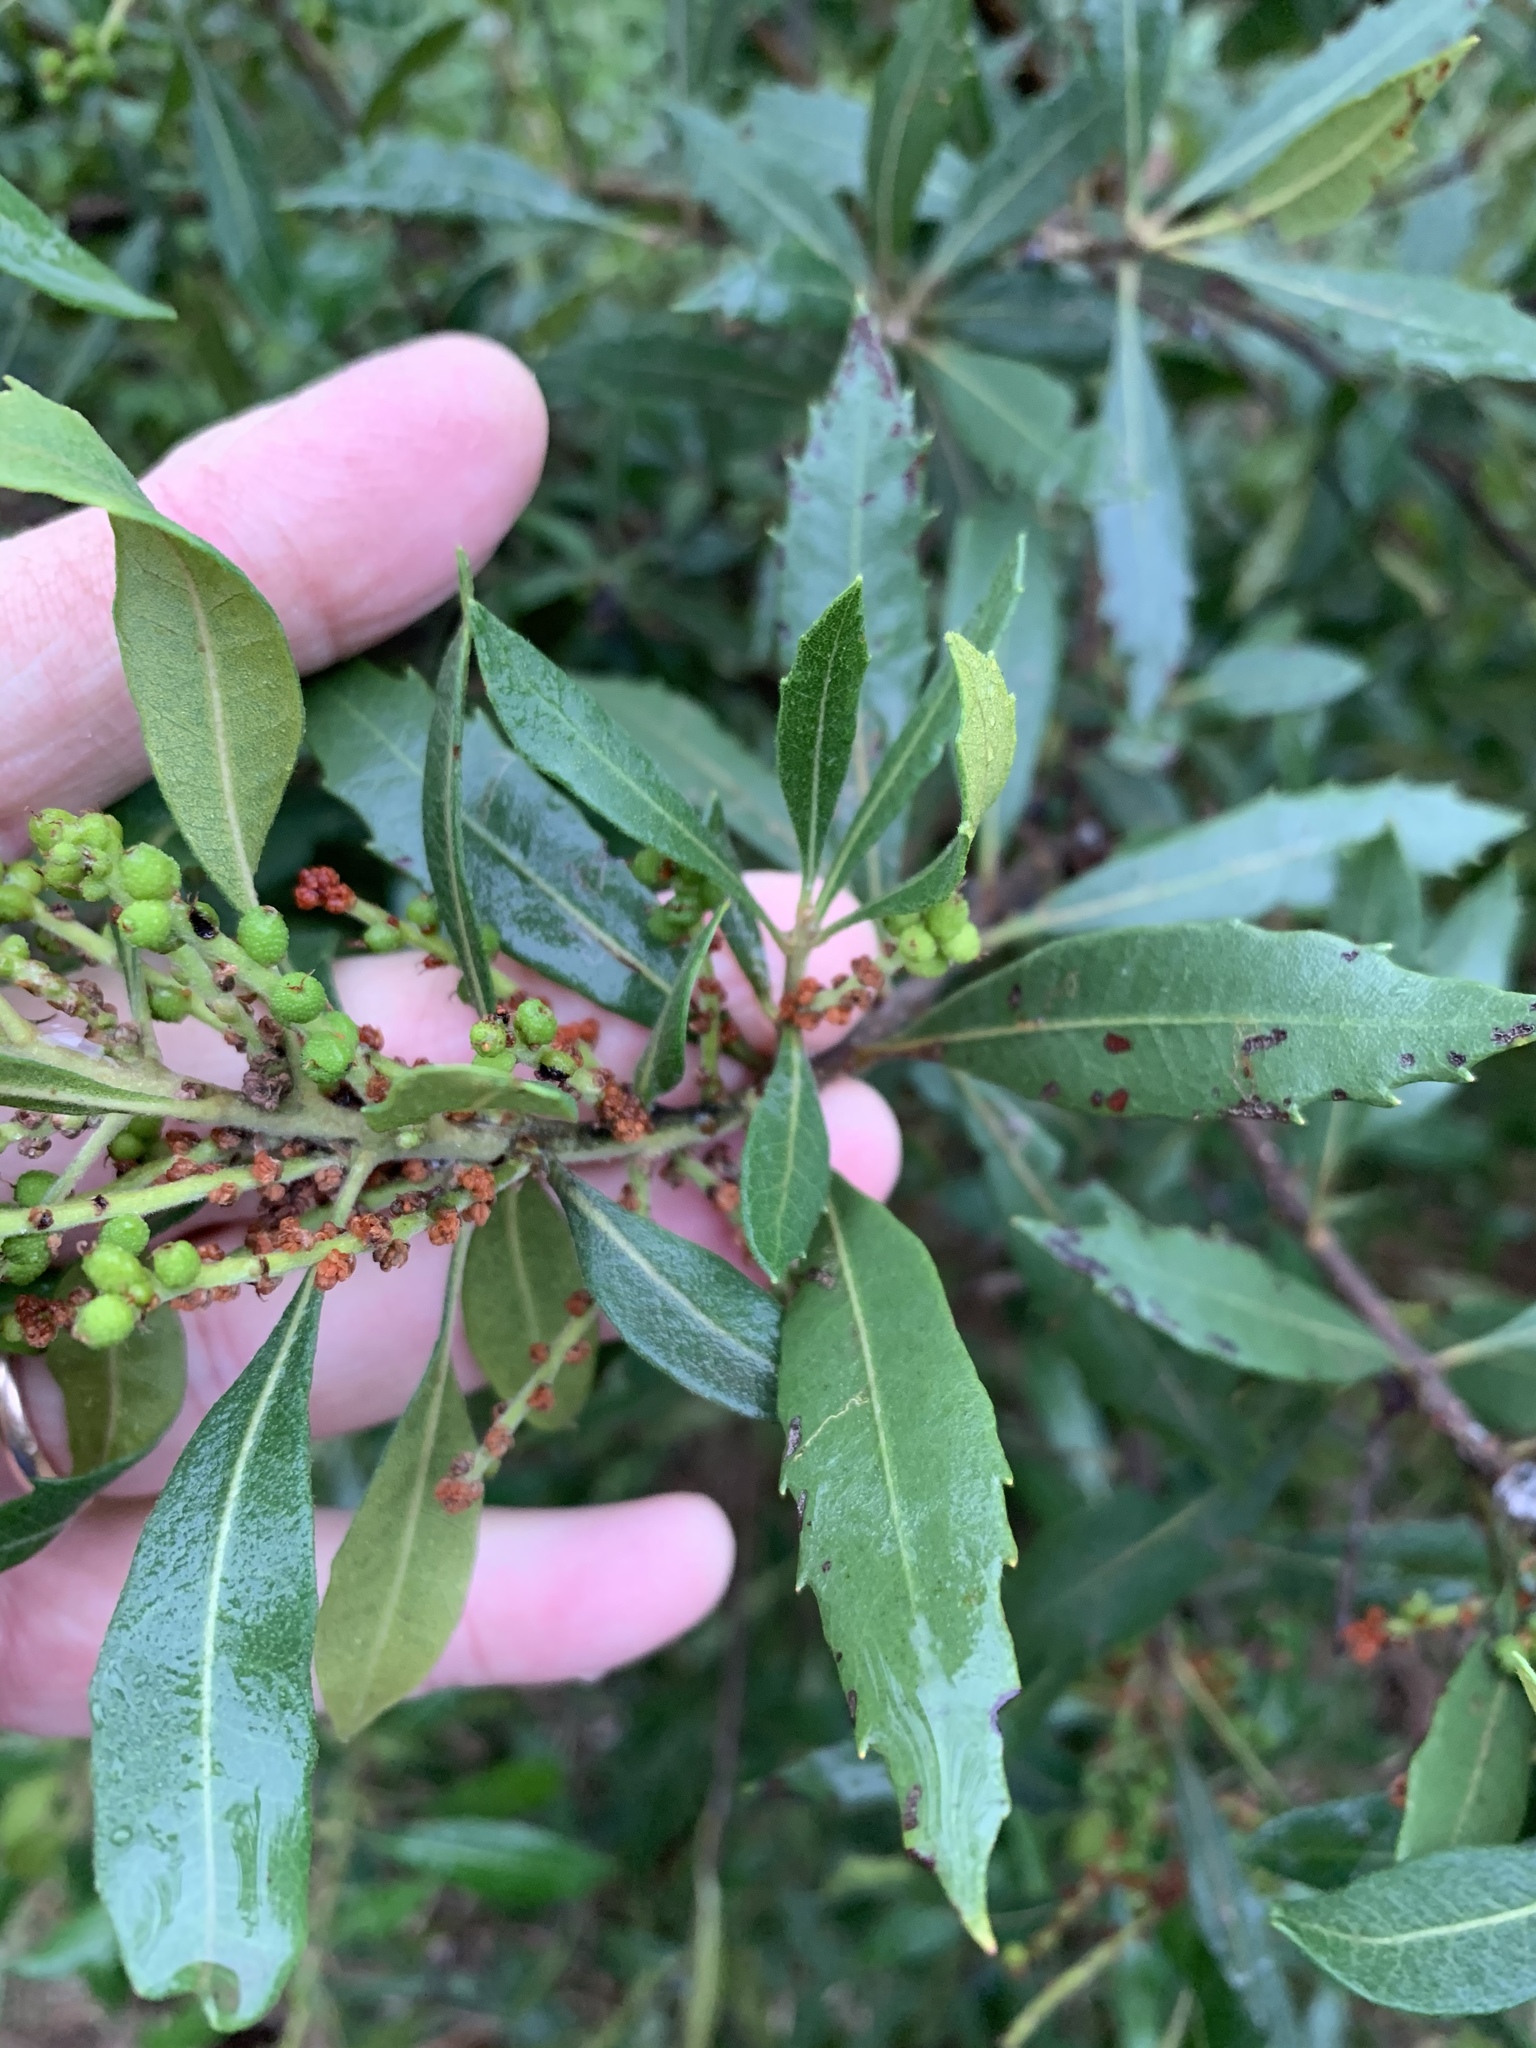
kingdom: Plantae
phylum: Tracheophyta
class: Magnoliopsida
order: Fagales
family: Myricaceae
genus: Morella
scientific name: Morella serrata
